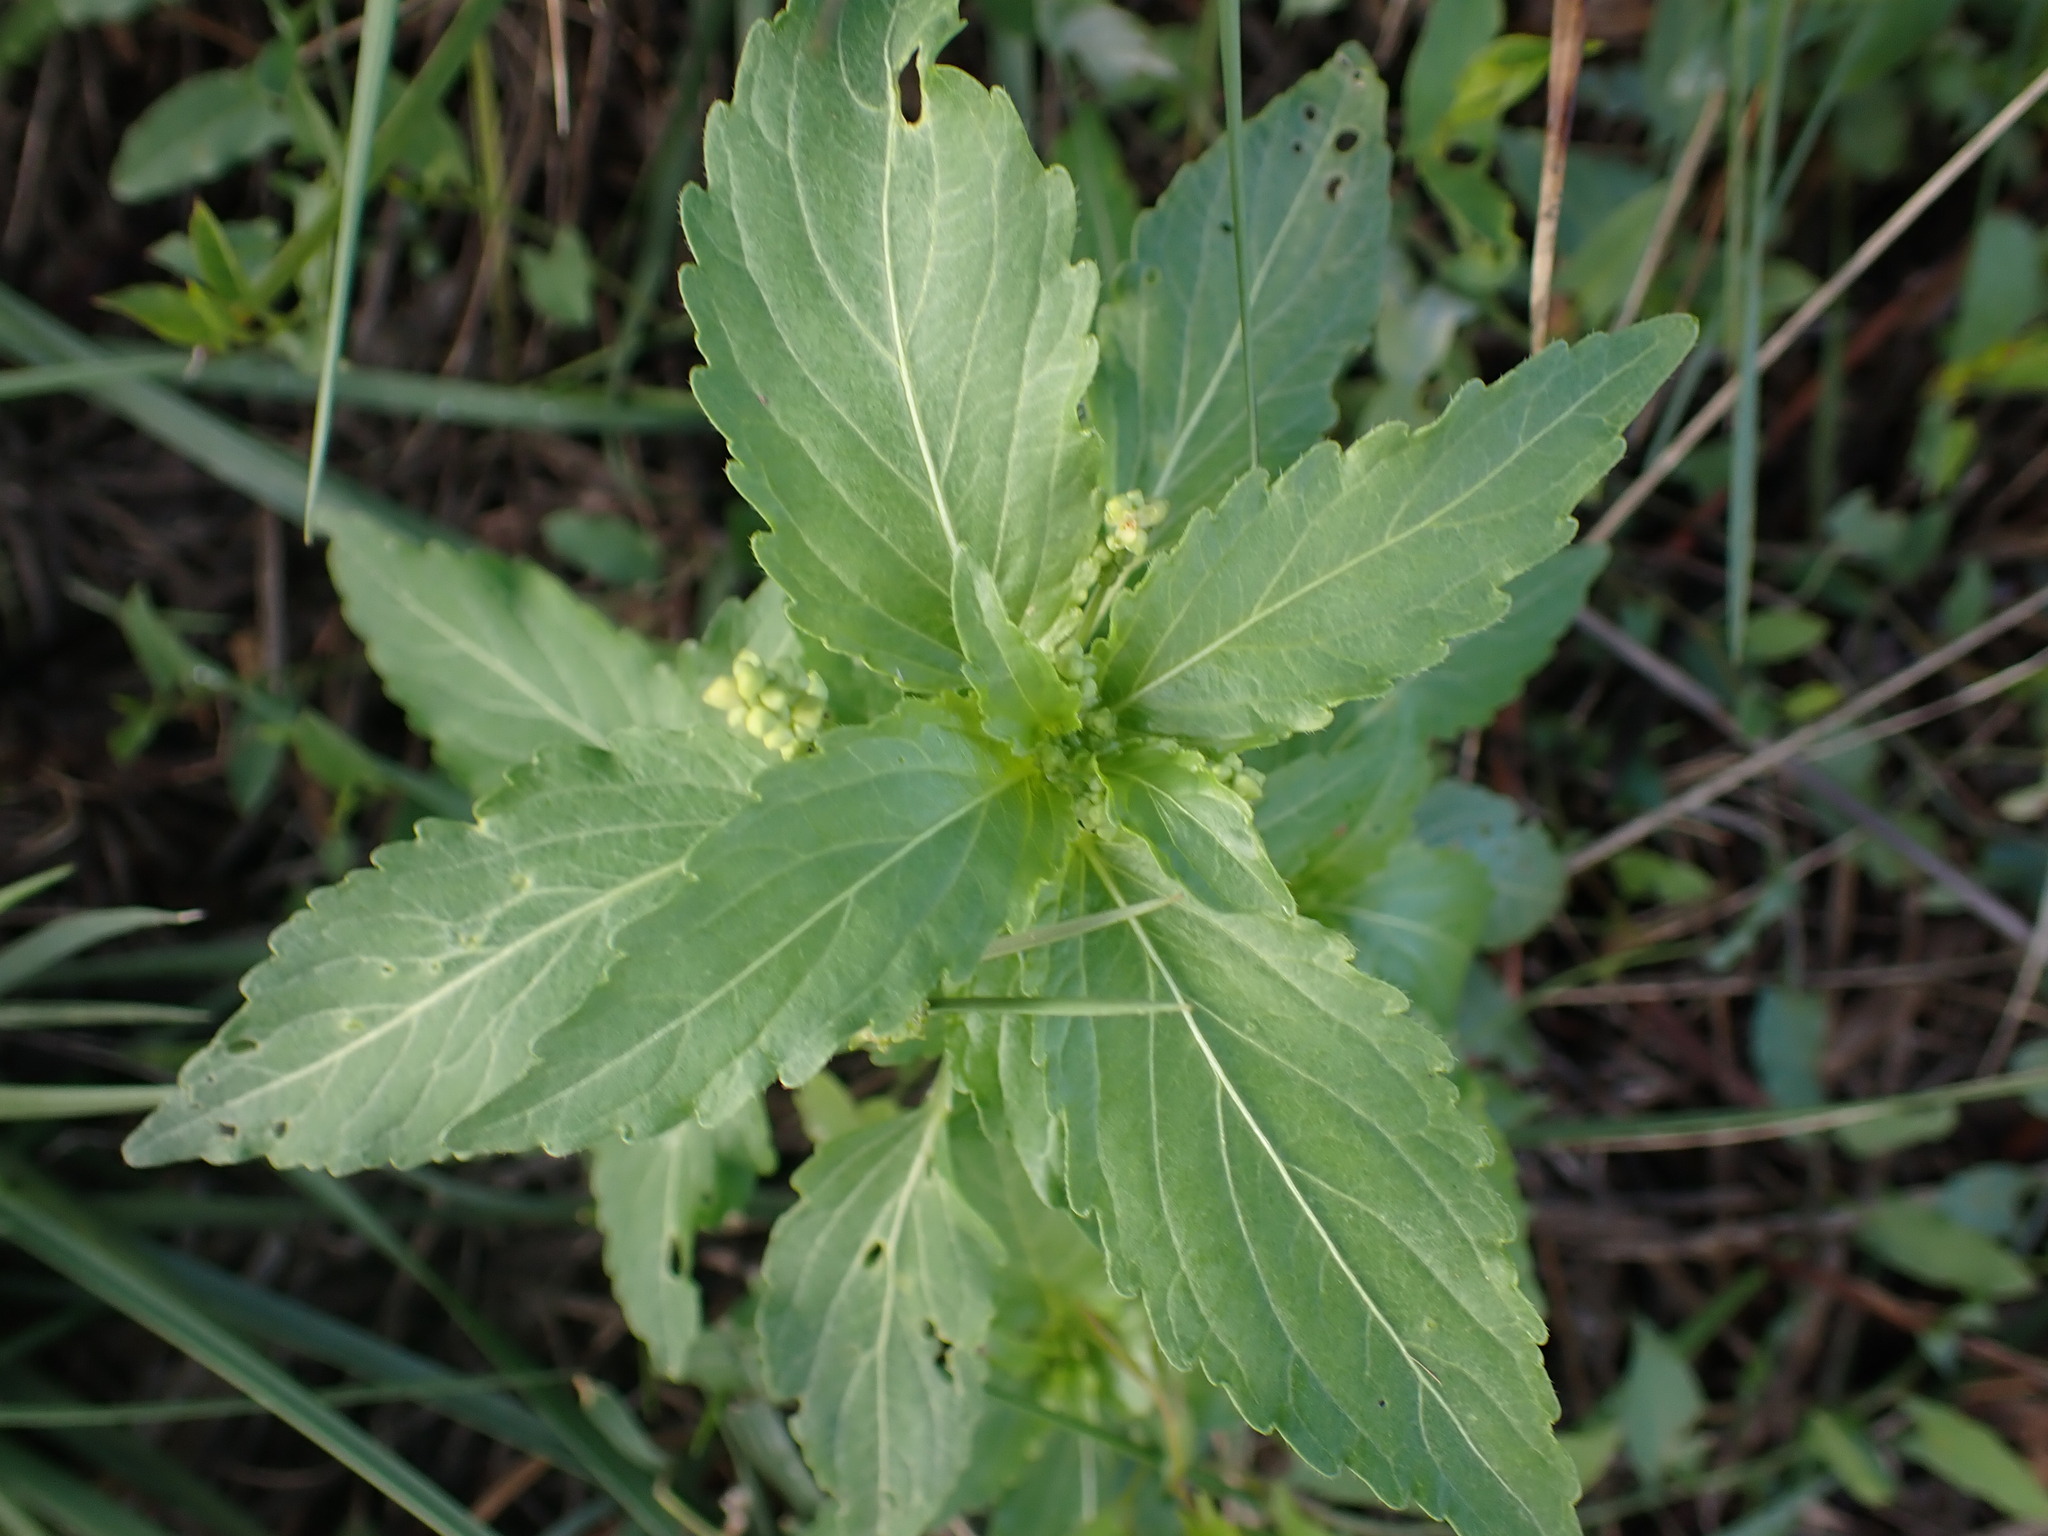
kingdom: Plantae
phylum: Tracheophyta
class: Magnoliopsida
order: Malpighiales
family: Euphorbiaceae
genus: Mercurialis
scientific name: Mercurialis annua
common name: Annual mercury
